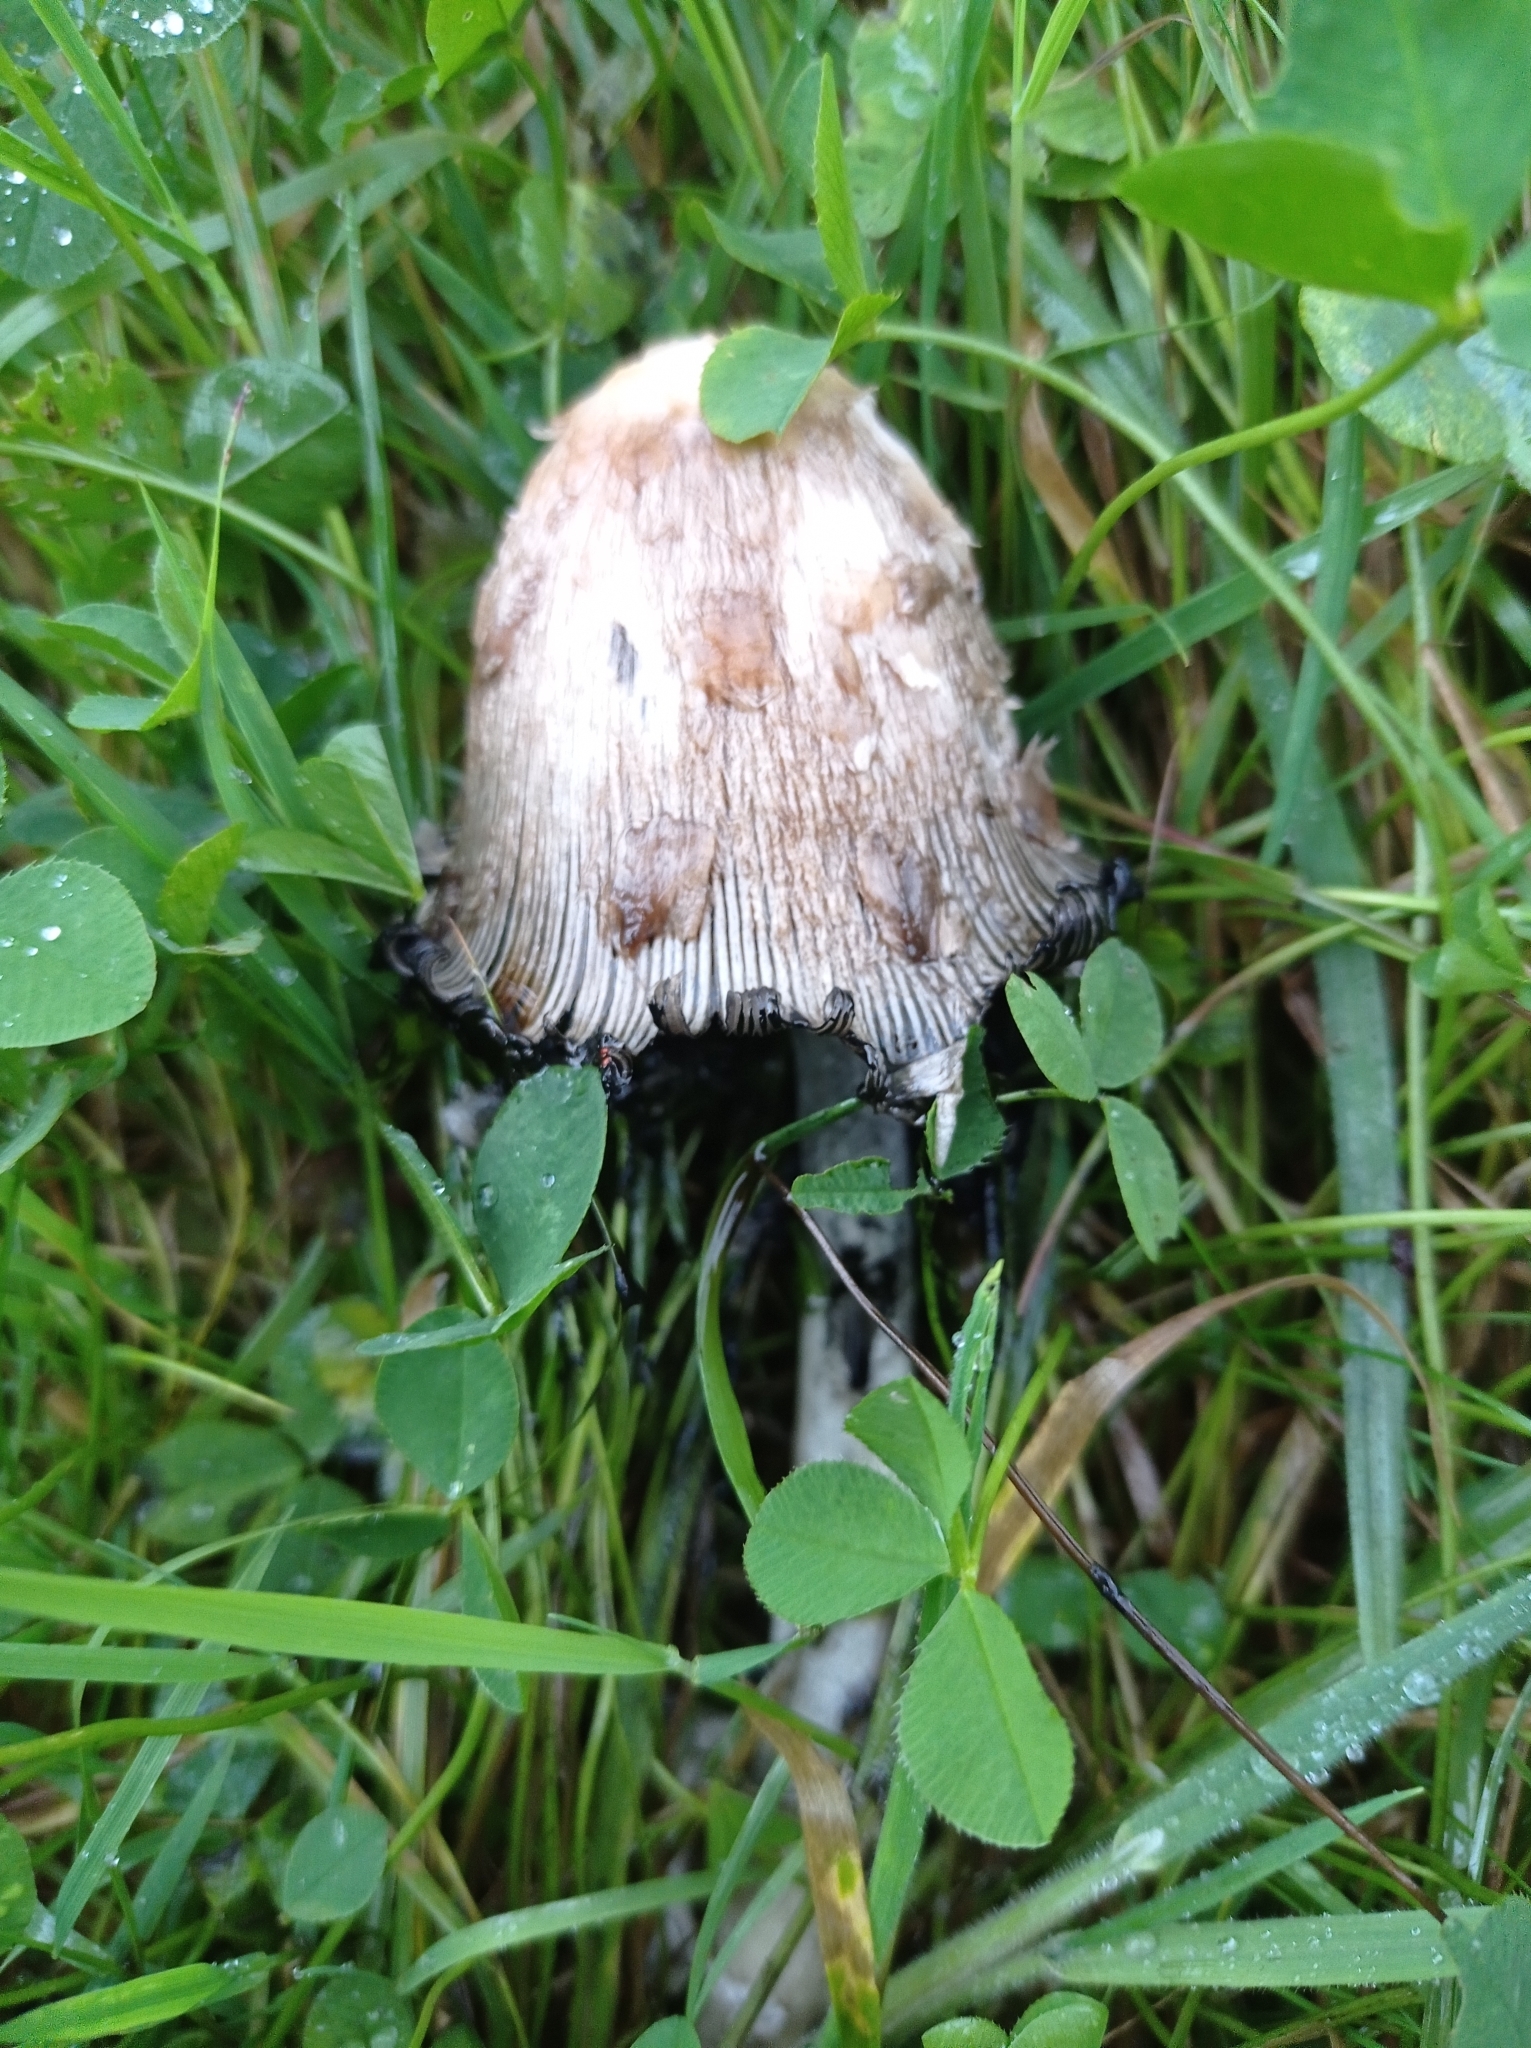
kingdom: Fungi
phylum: Basidiomycota
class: Agaricomycetes
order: Agaricales
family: Agaricaceae
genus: Coprinus
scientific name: Coprinus comatus
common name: Lawyer's wig
